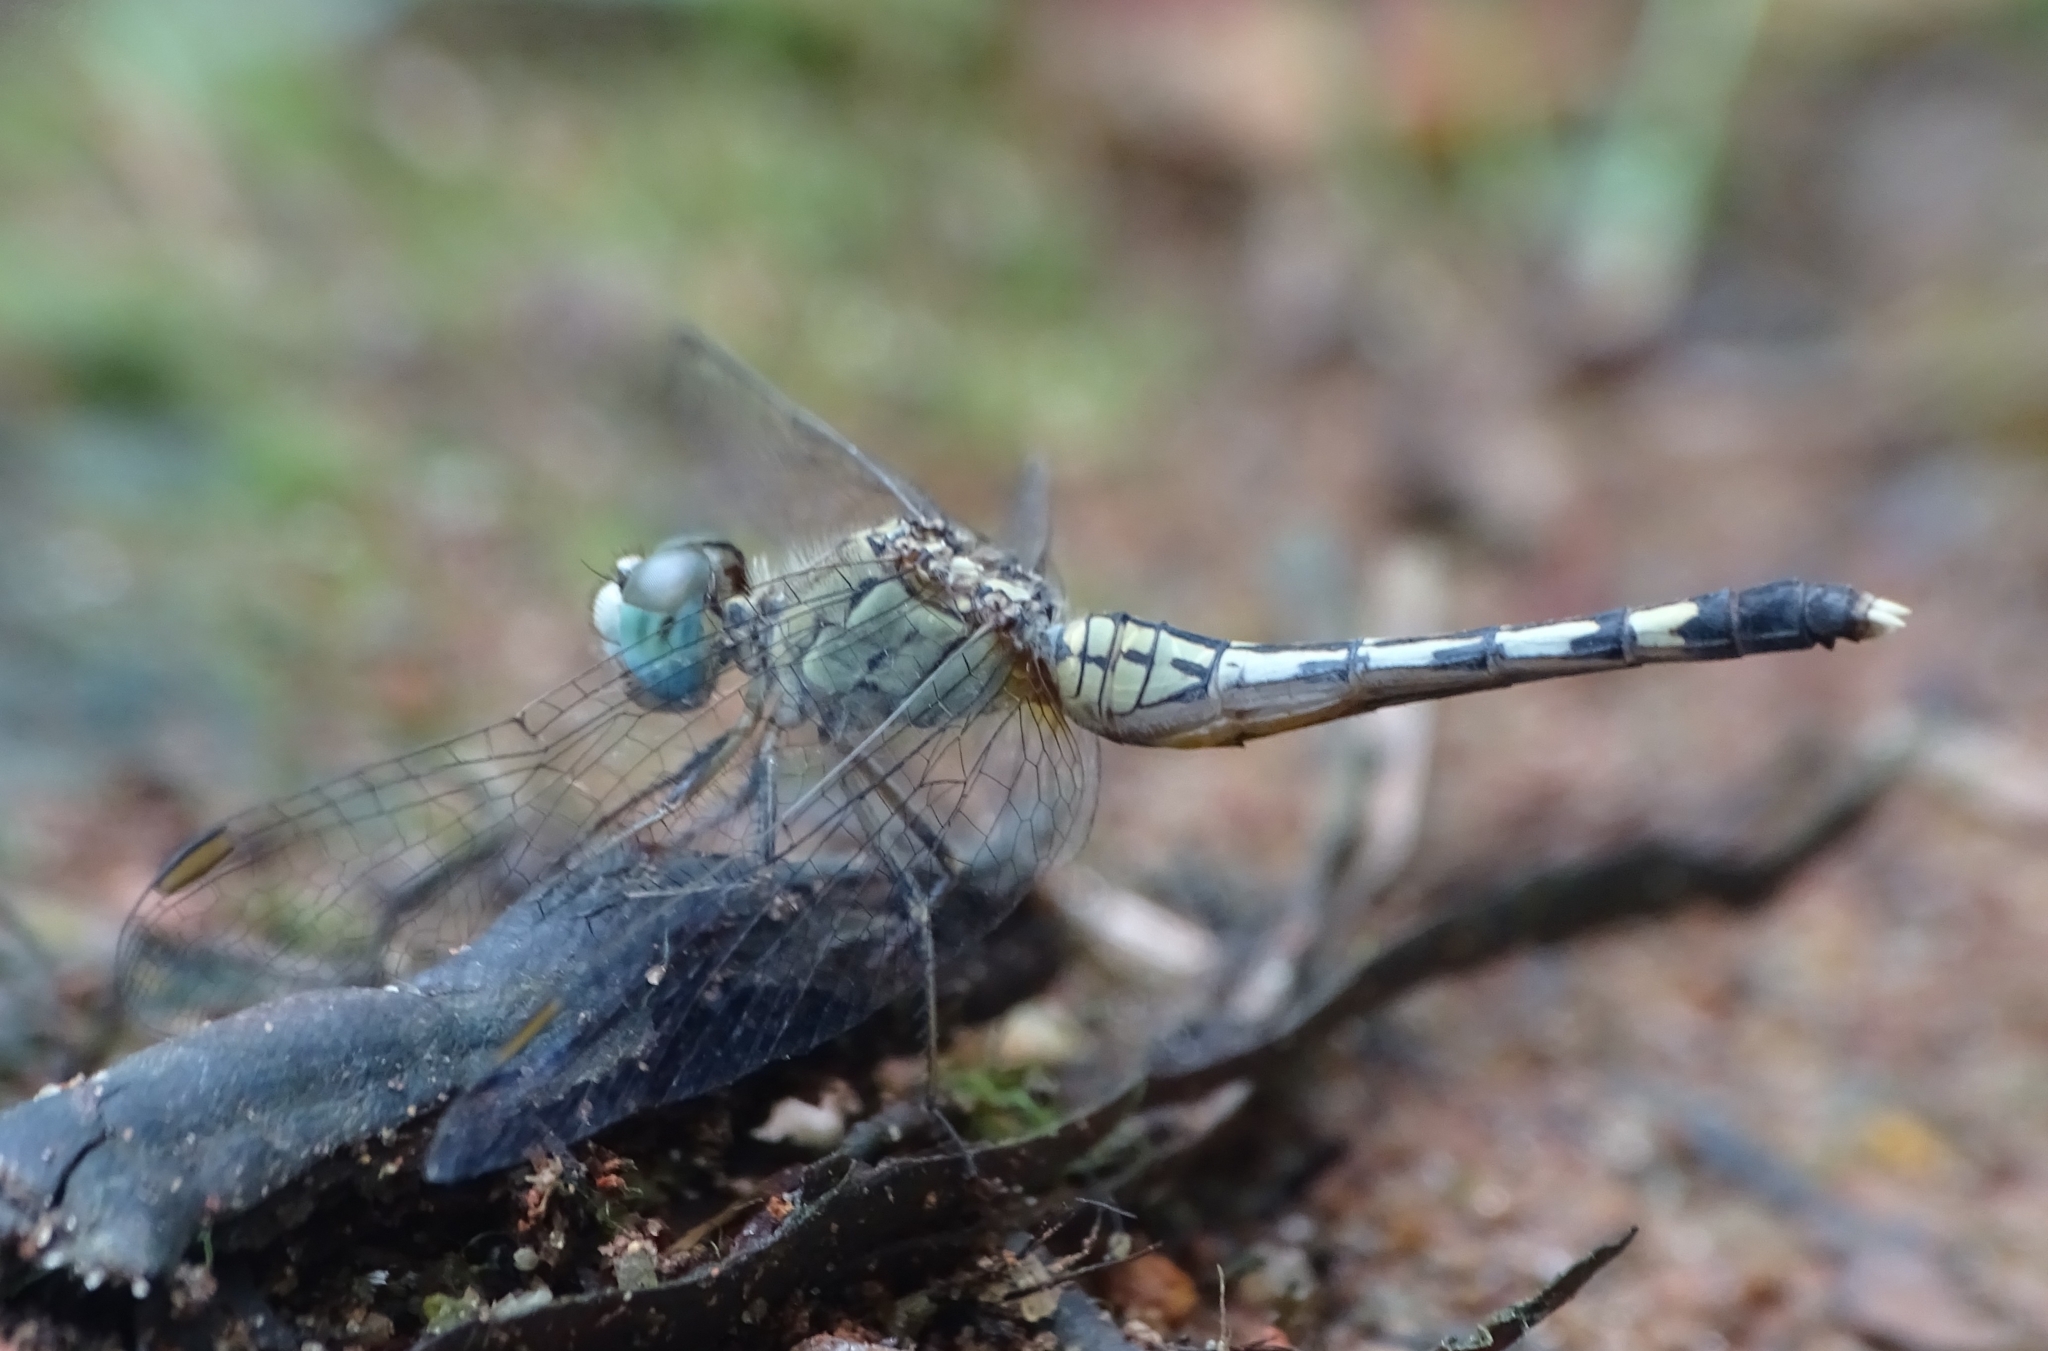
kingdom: Animalia
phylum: Arthropoda
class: Insecta
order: Odonata
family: Libellulidae
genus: Diplacodes
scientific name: Diplacodes trivialis
